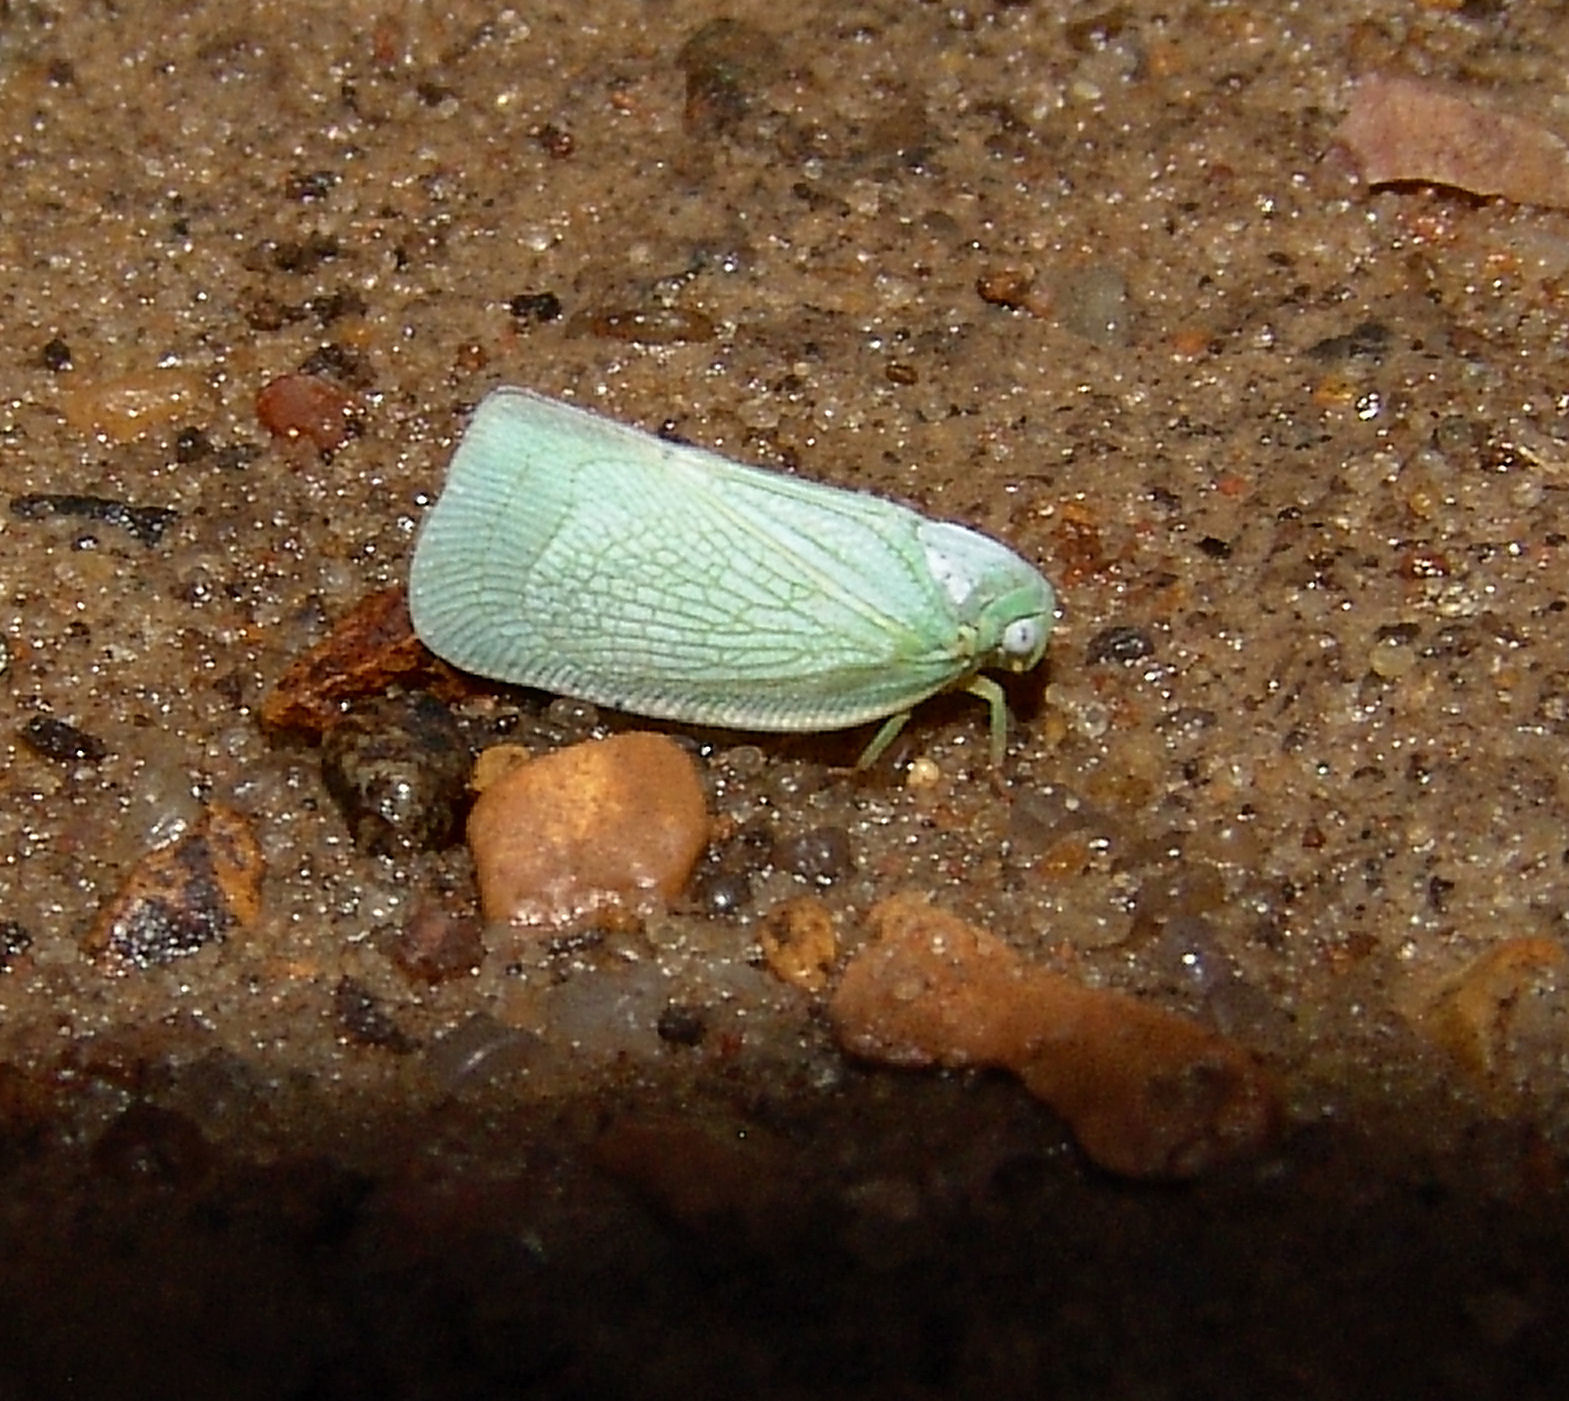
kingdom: Animalia
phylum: Arthropoda
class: Insecta
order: Hemiptera
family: Flatidae
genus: Flatormenis
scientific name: Flatormenis proxima
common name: Northern flatid planthopper
